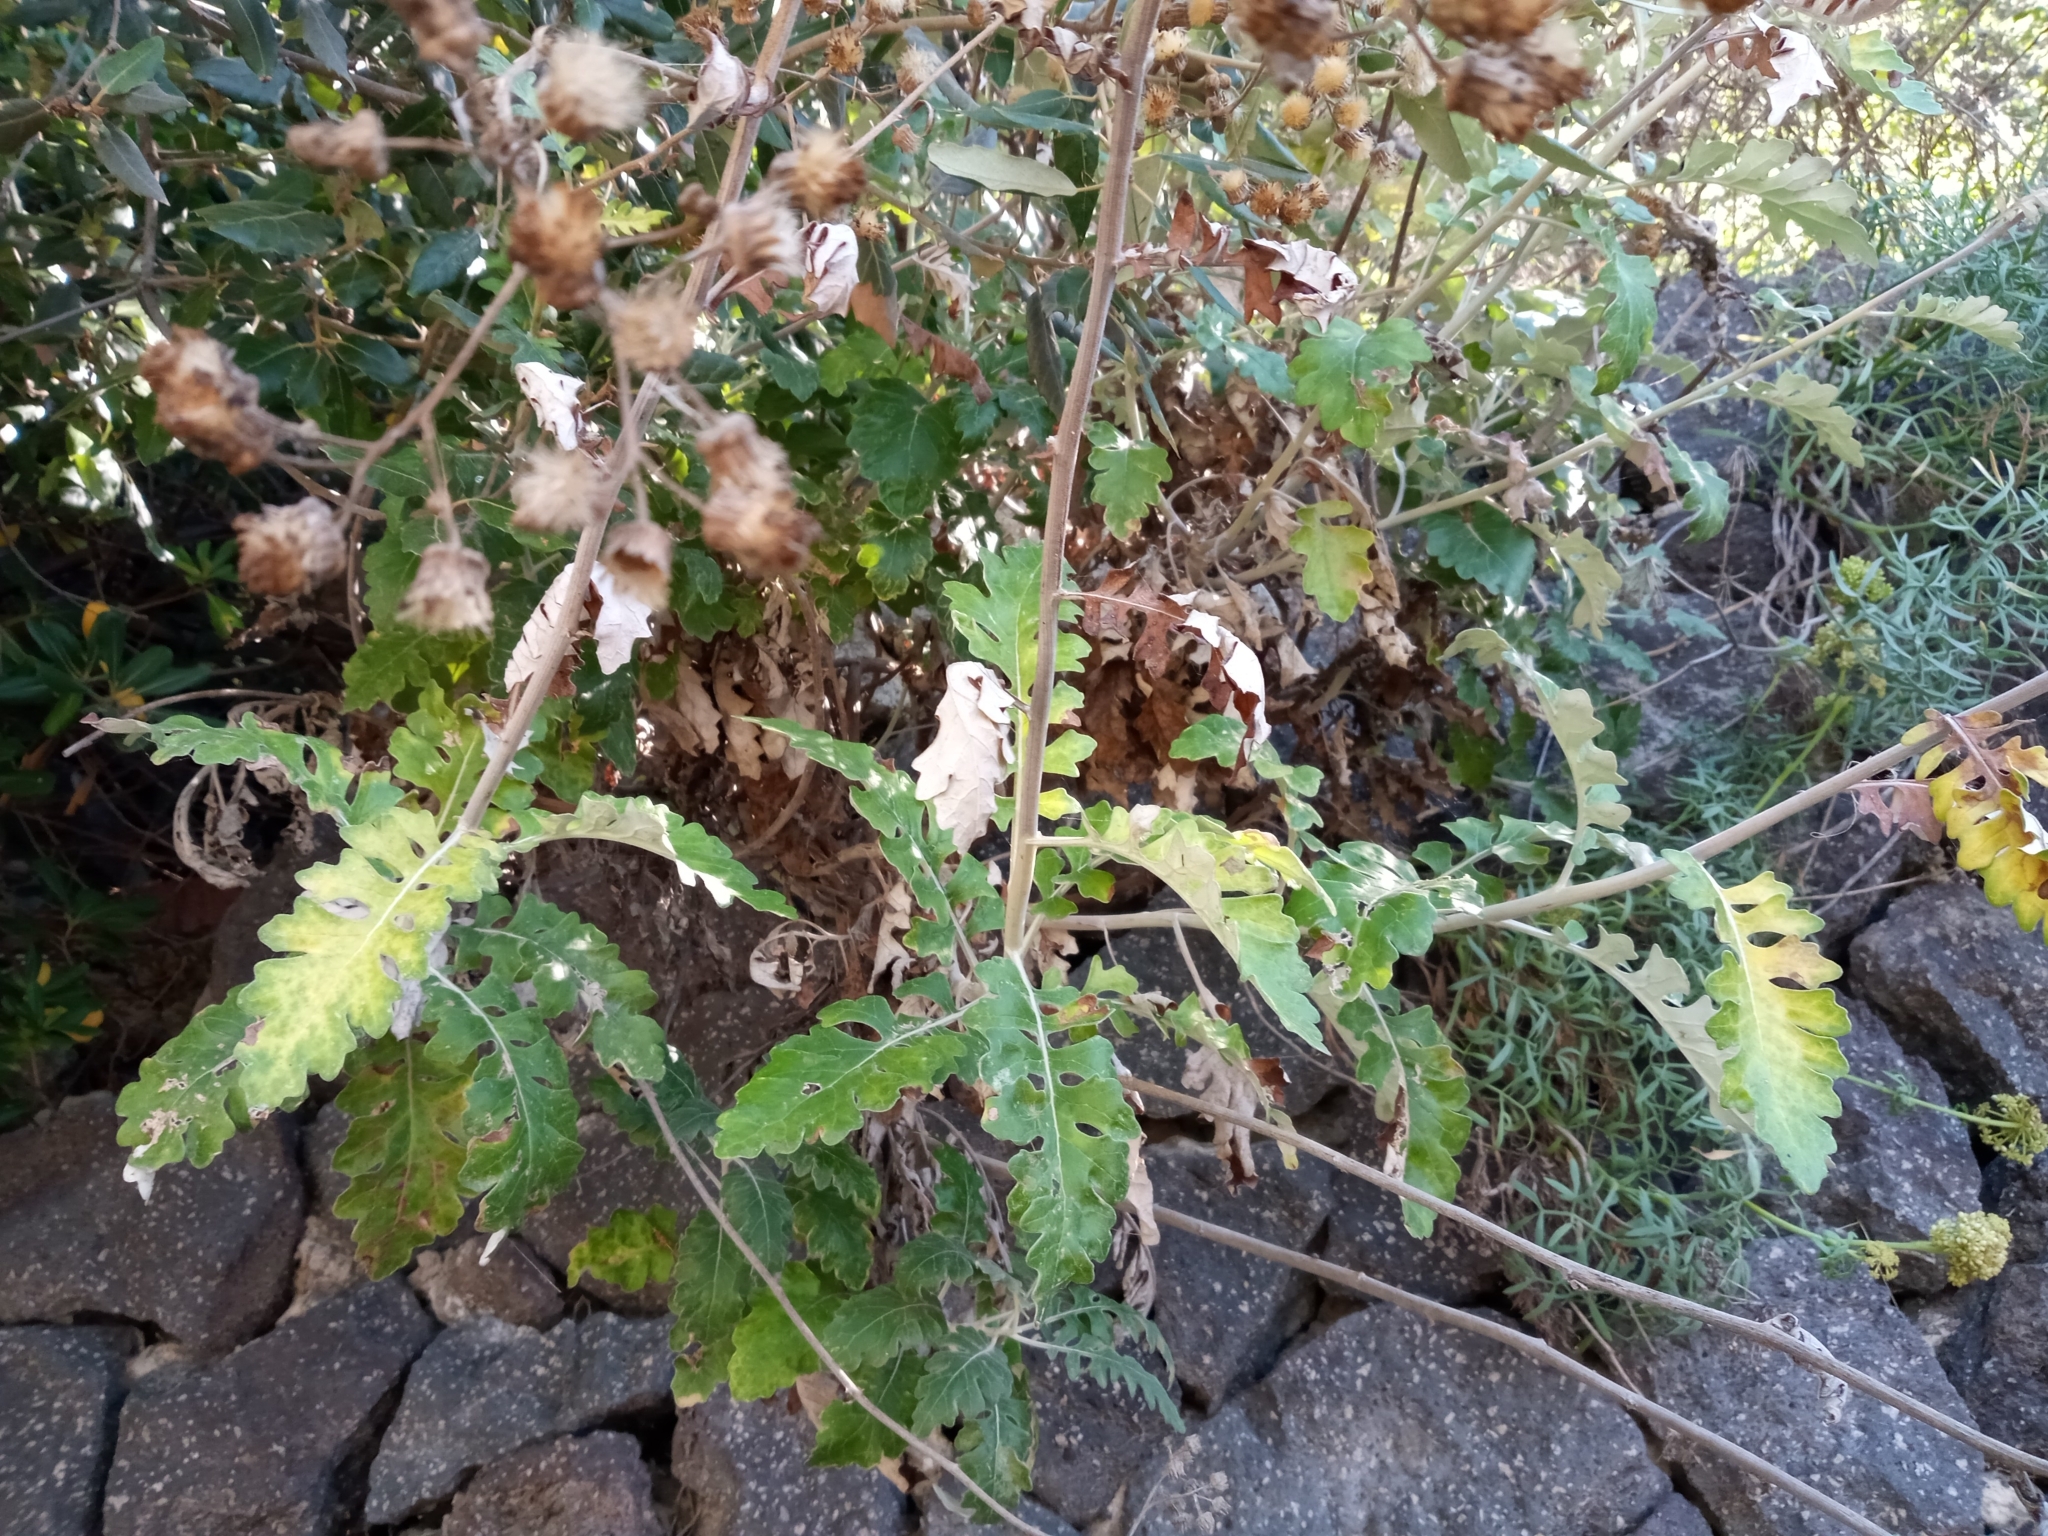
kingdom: Plantae
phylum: Tracheophyta
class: Magnoliopsida
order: Asterales
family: Asteraceae
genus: Jacobaea
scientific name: Jacobaea maritima
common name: Silver ragwort
